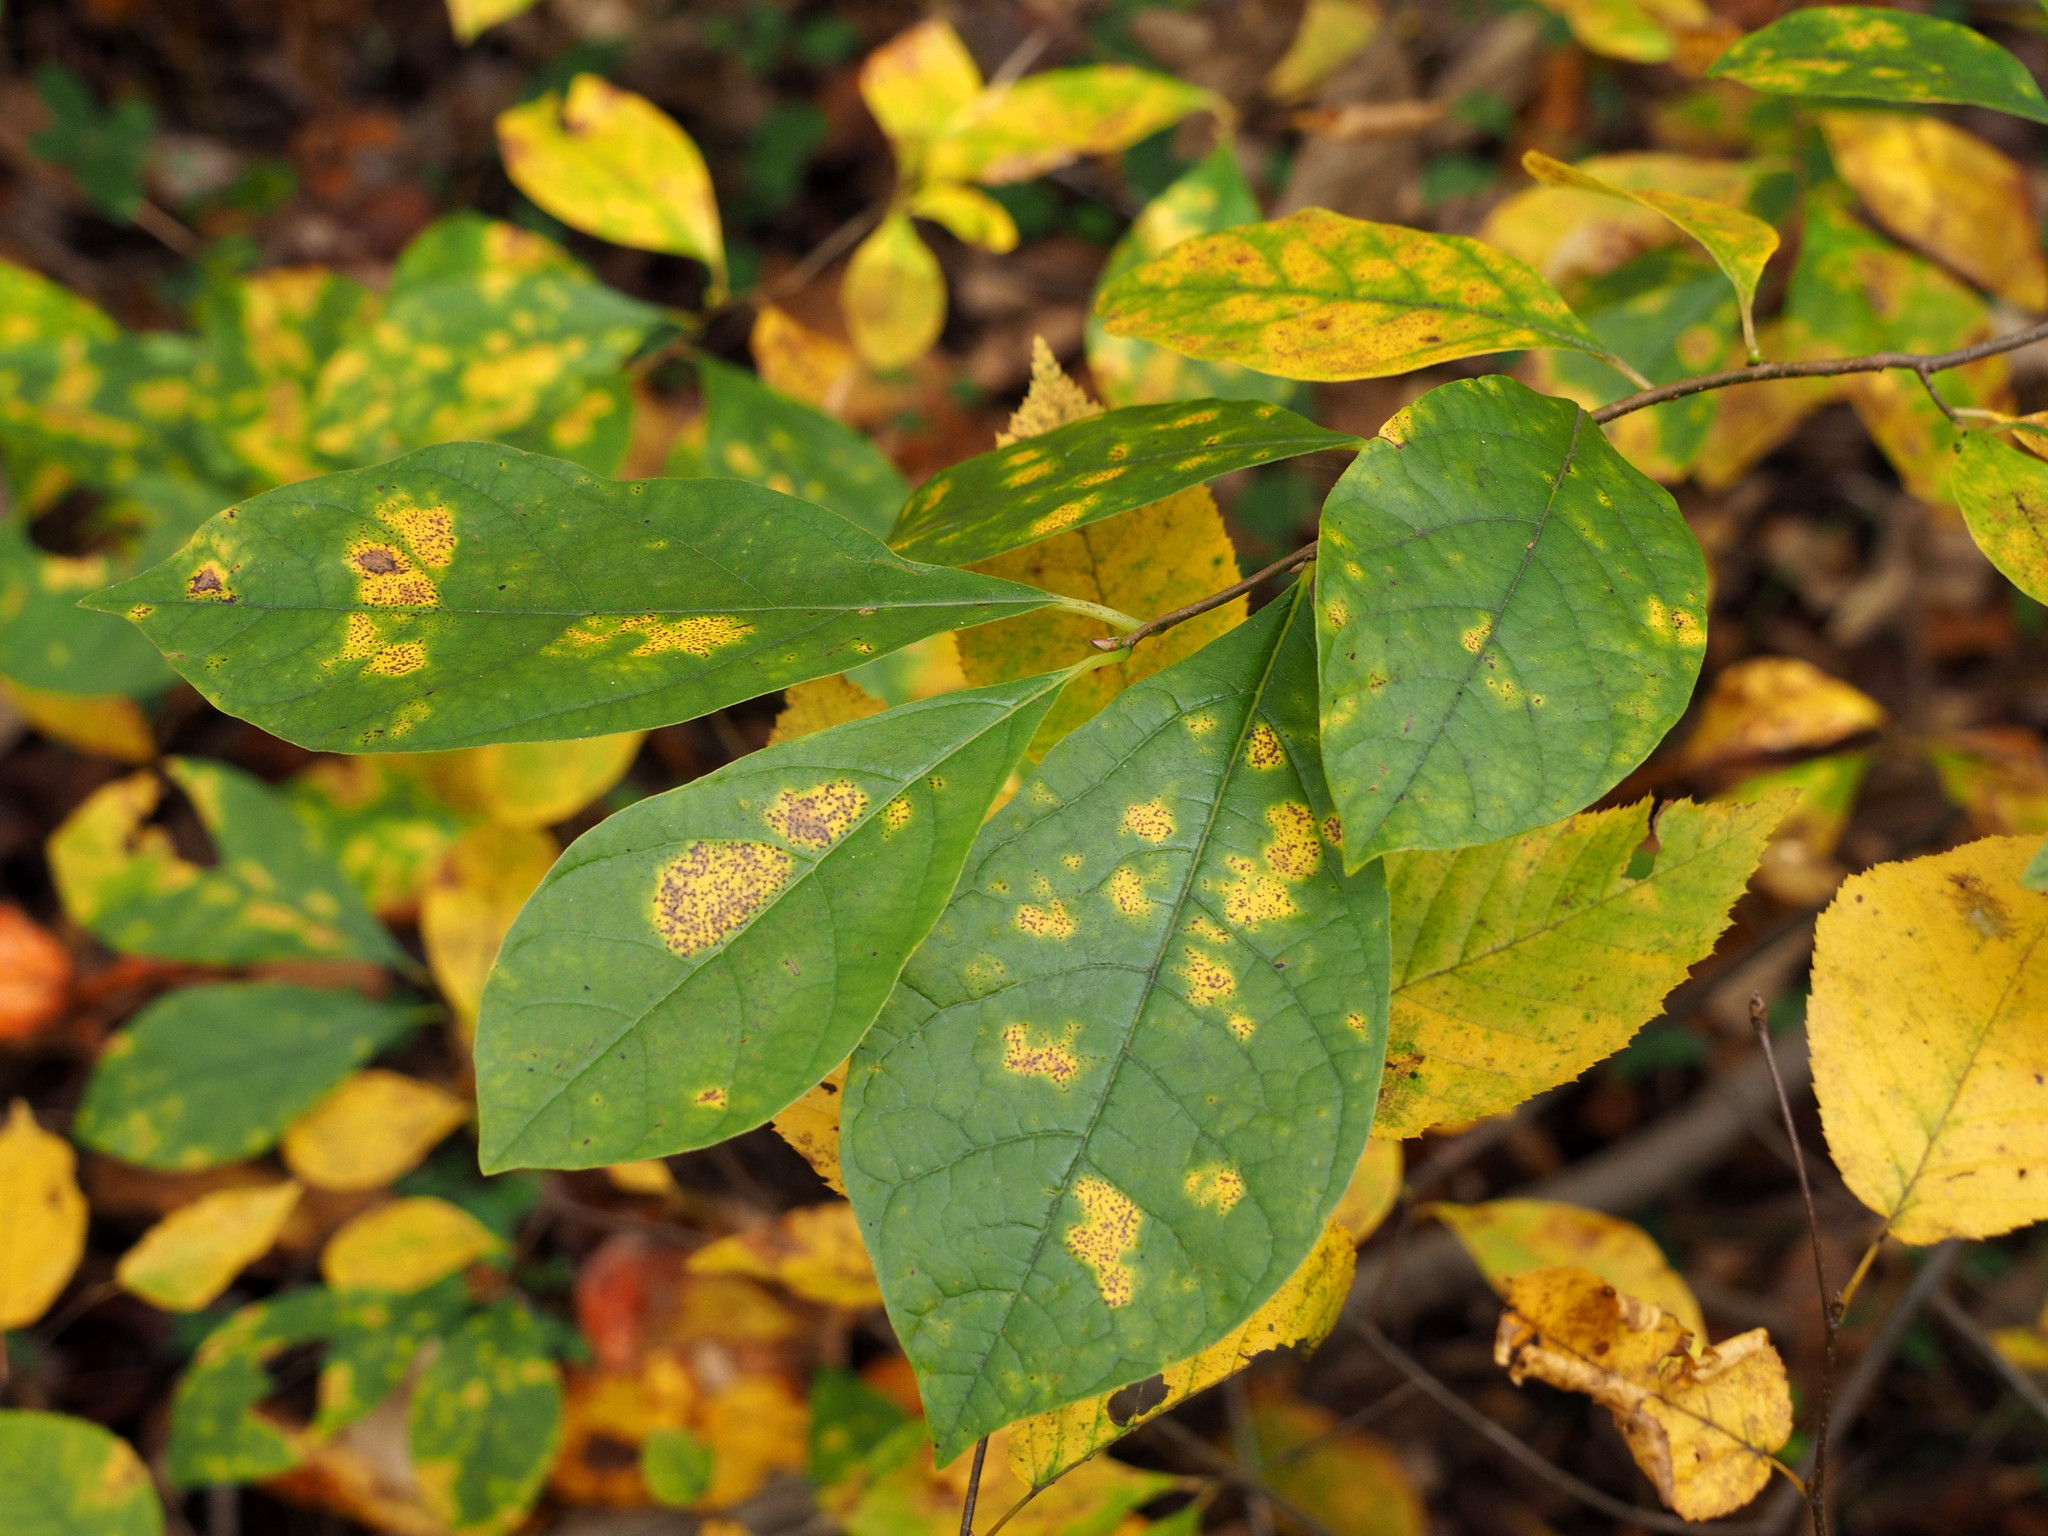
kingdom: Plantae
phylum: Tracheophyta
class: Magnoliopsida
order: Laurales
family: Lauraceae
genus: Lindera
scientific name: Lindera benzoin
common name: Spicebush
